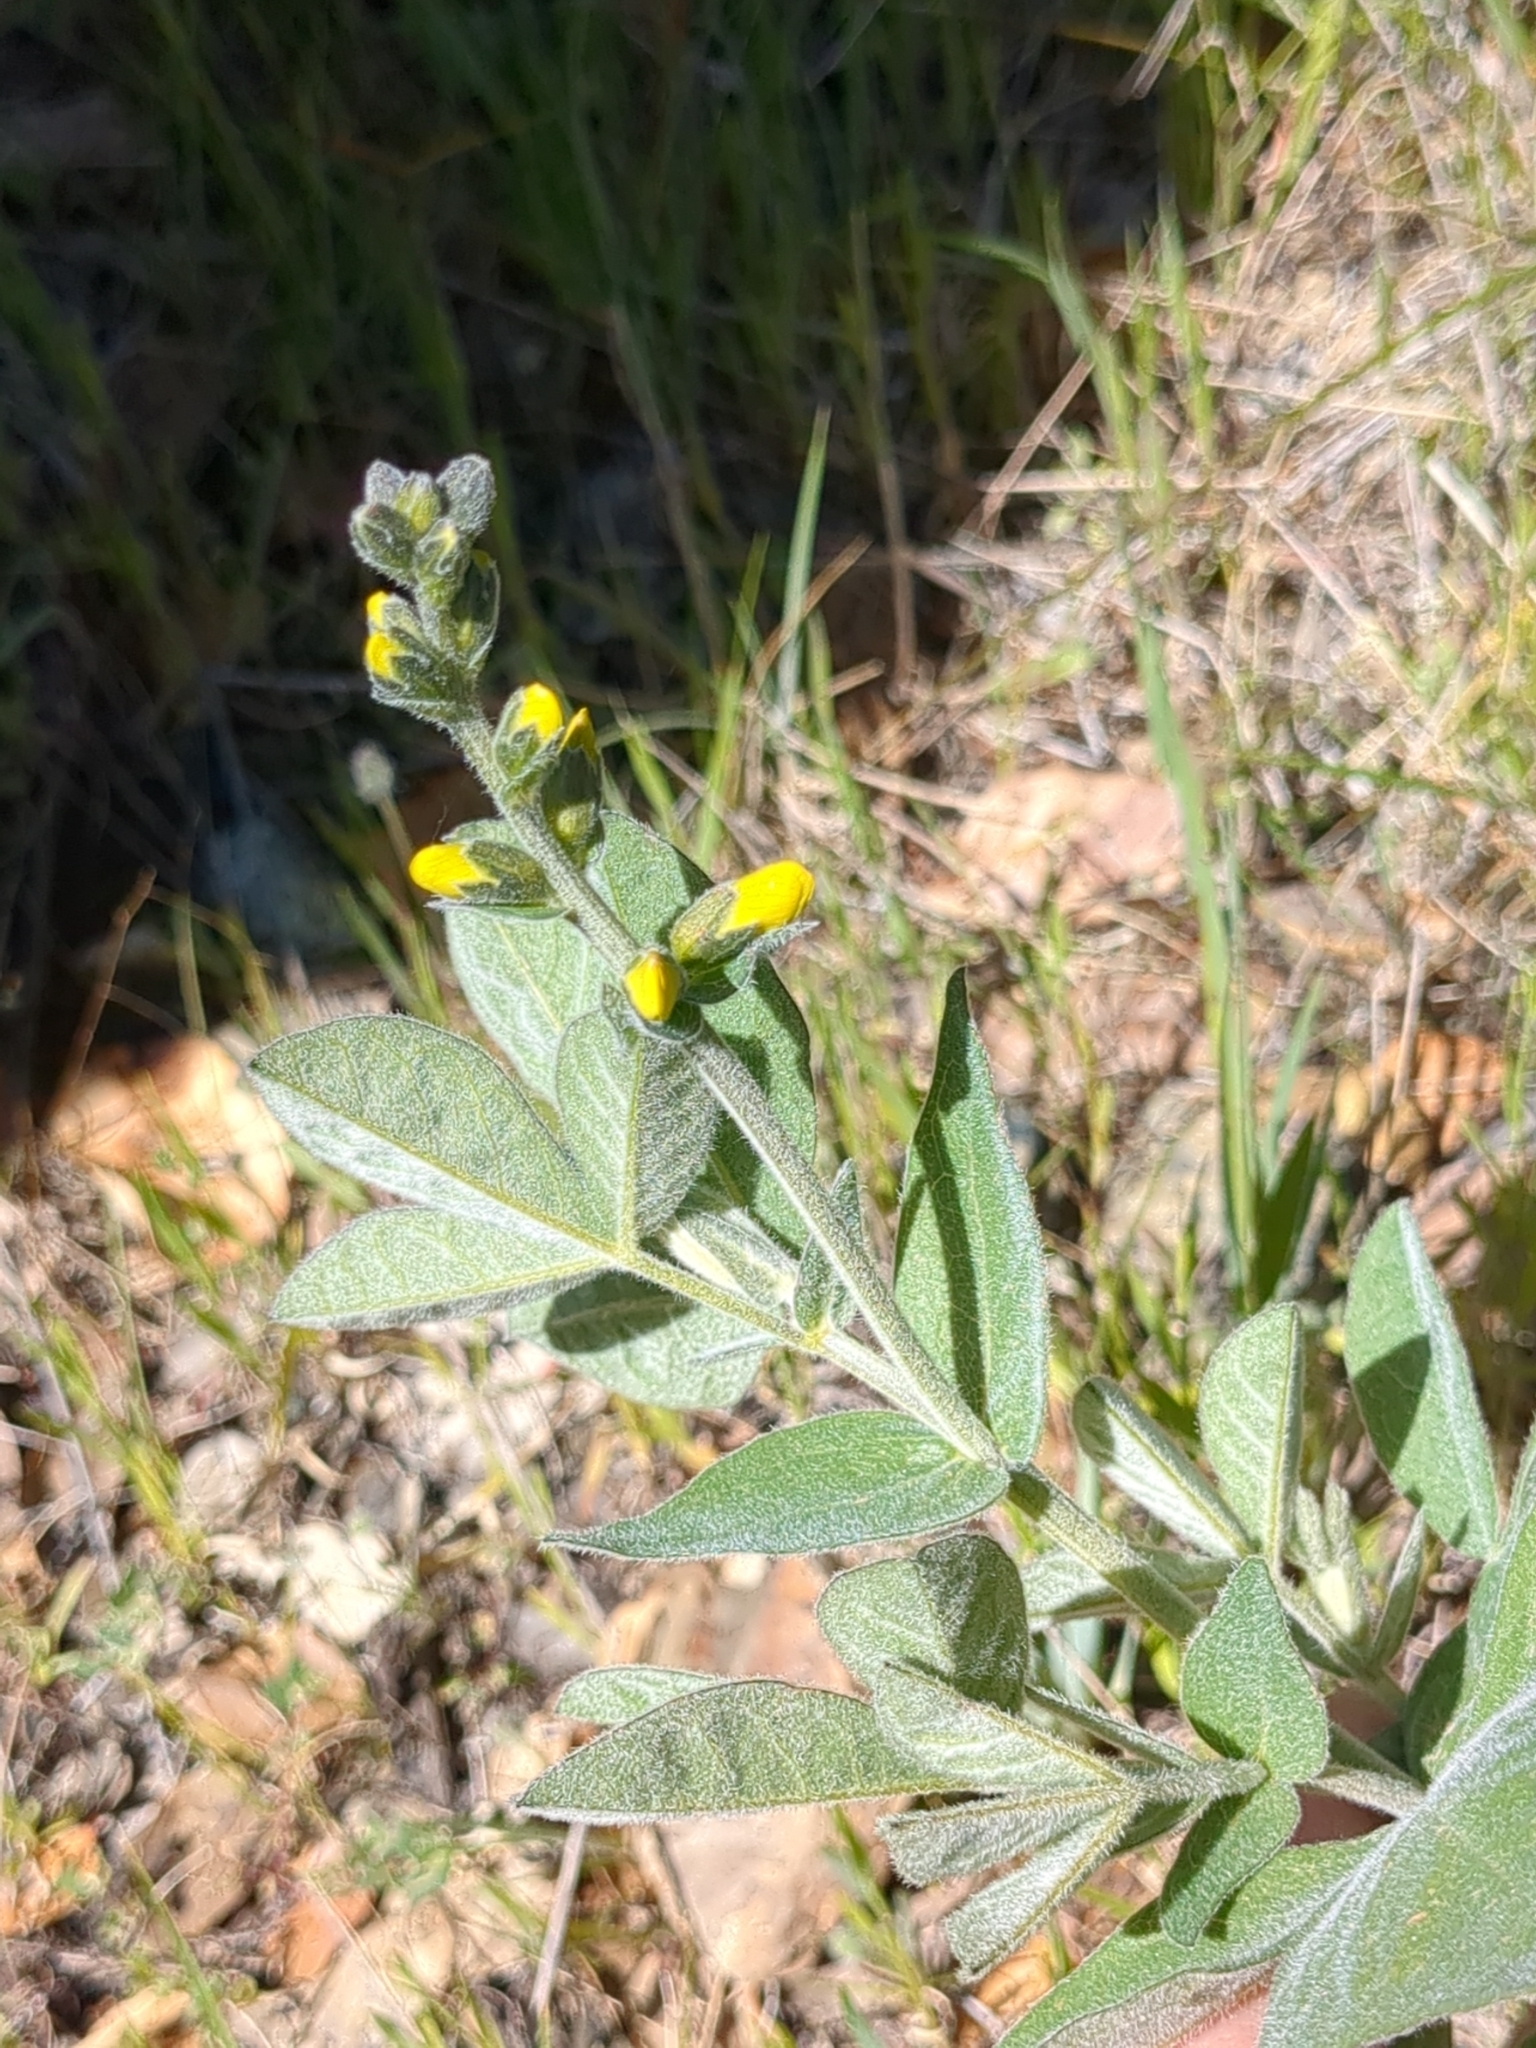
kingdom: Plantae
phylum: Tracheophyta
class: Magnoliopsida
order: Fabales
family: Fabaceae
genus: Thermopsis
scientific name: Thermopsis californica
